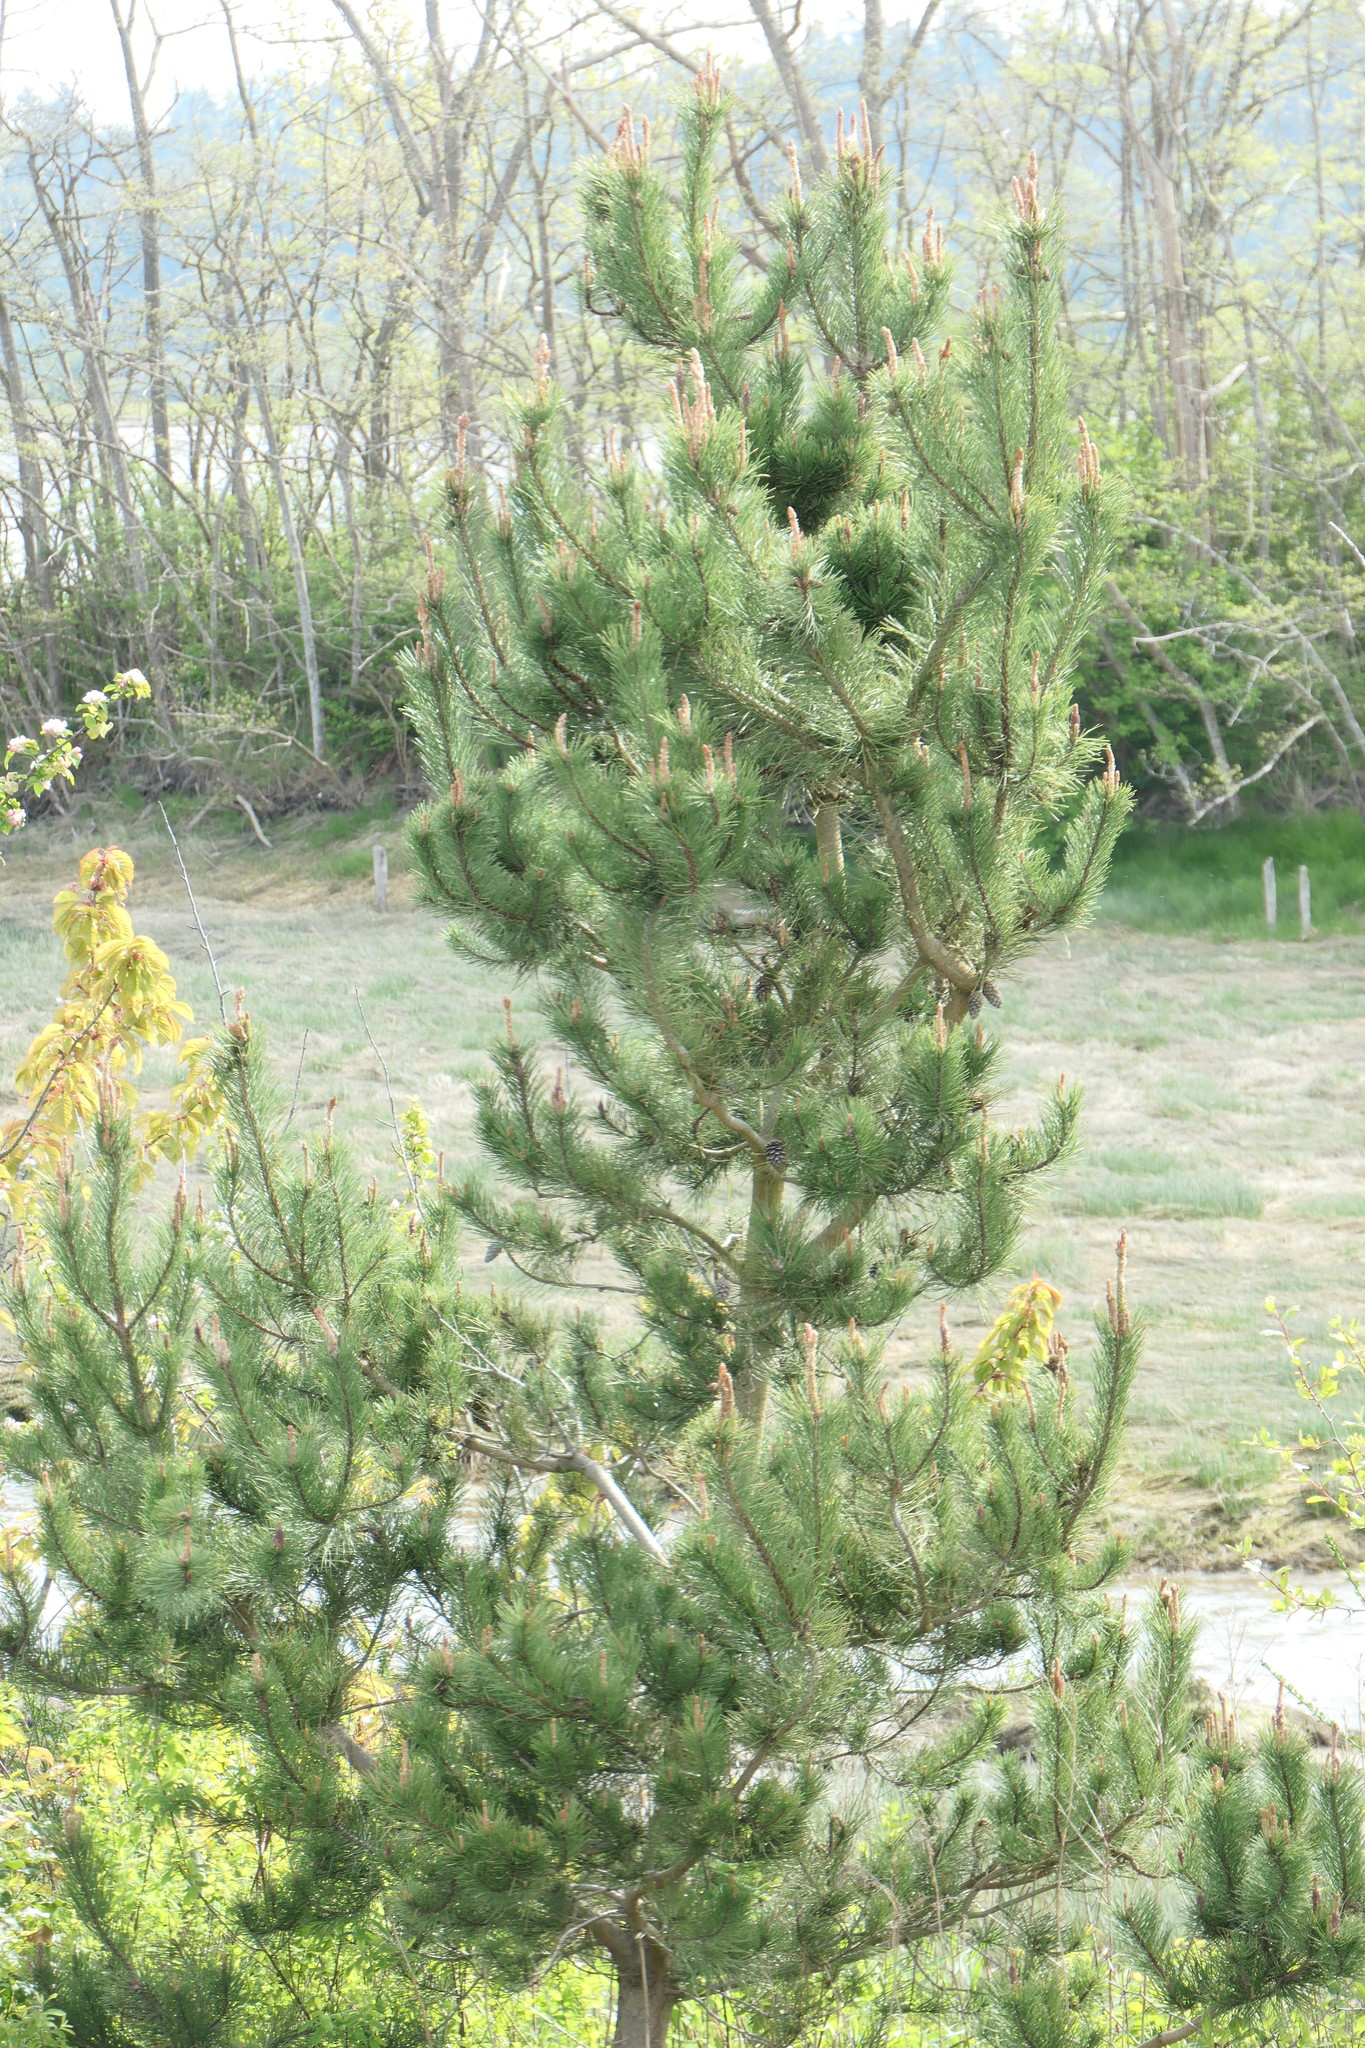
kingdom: Plantae
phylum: Tracheophyta
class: Pinopsida
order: Pinales
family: Pinaceae
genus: Pinus
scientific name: Pinus contorta
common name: Lodgepole pine
